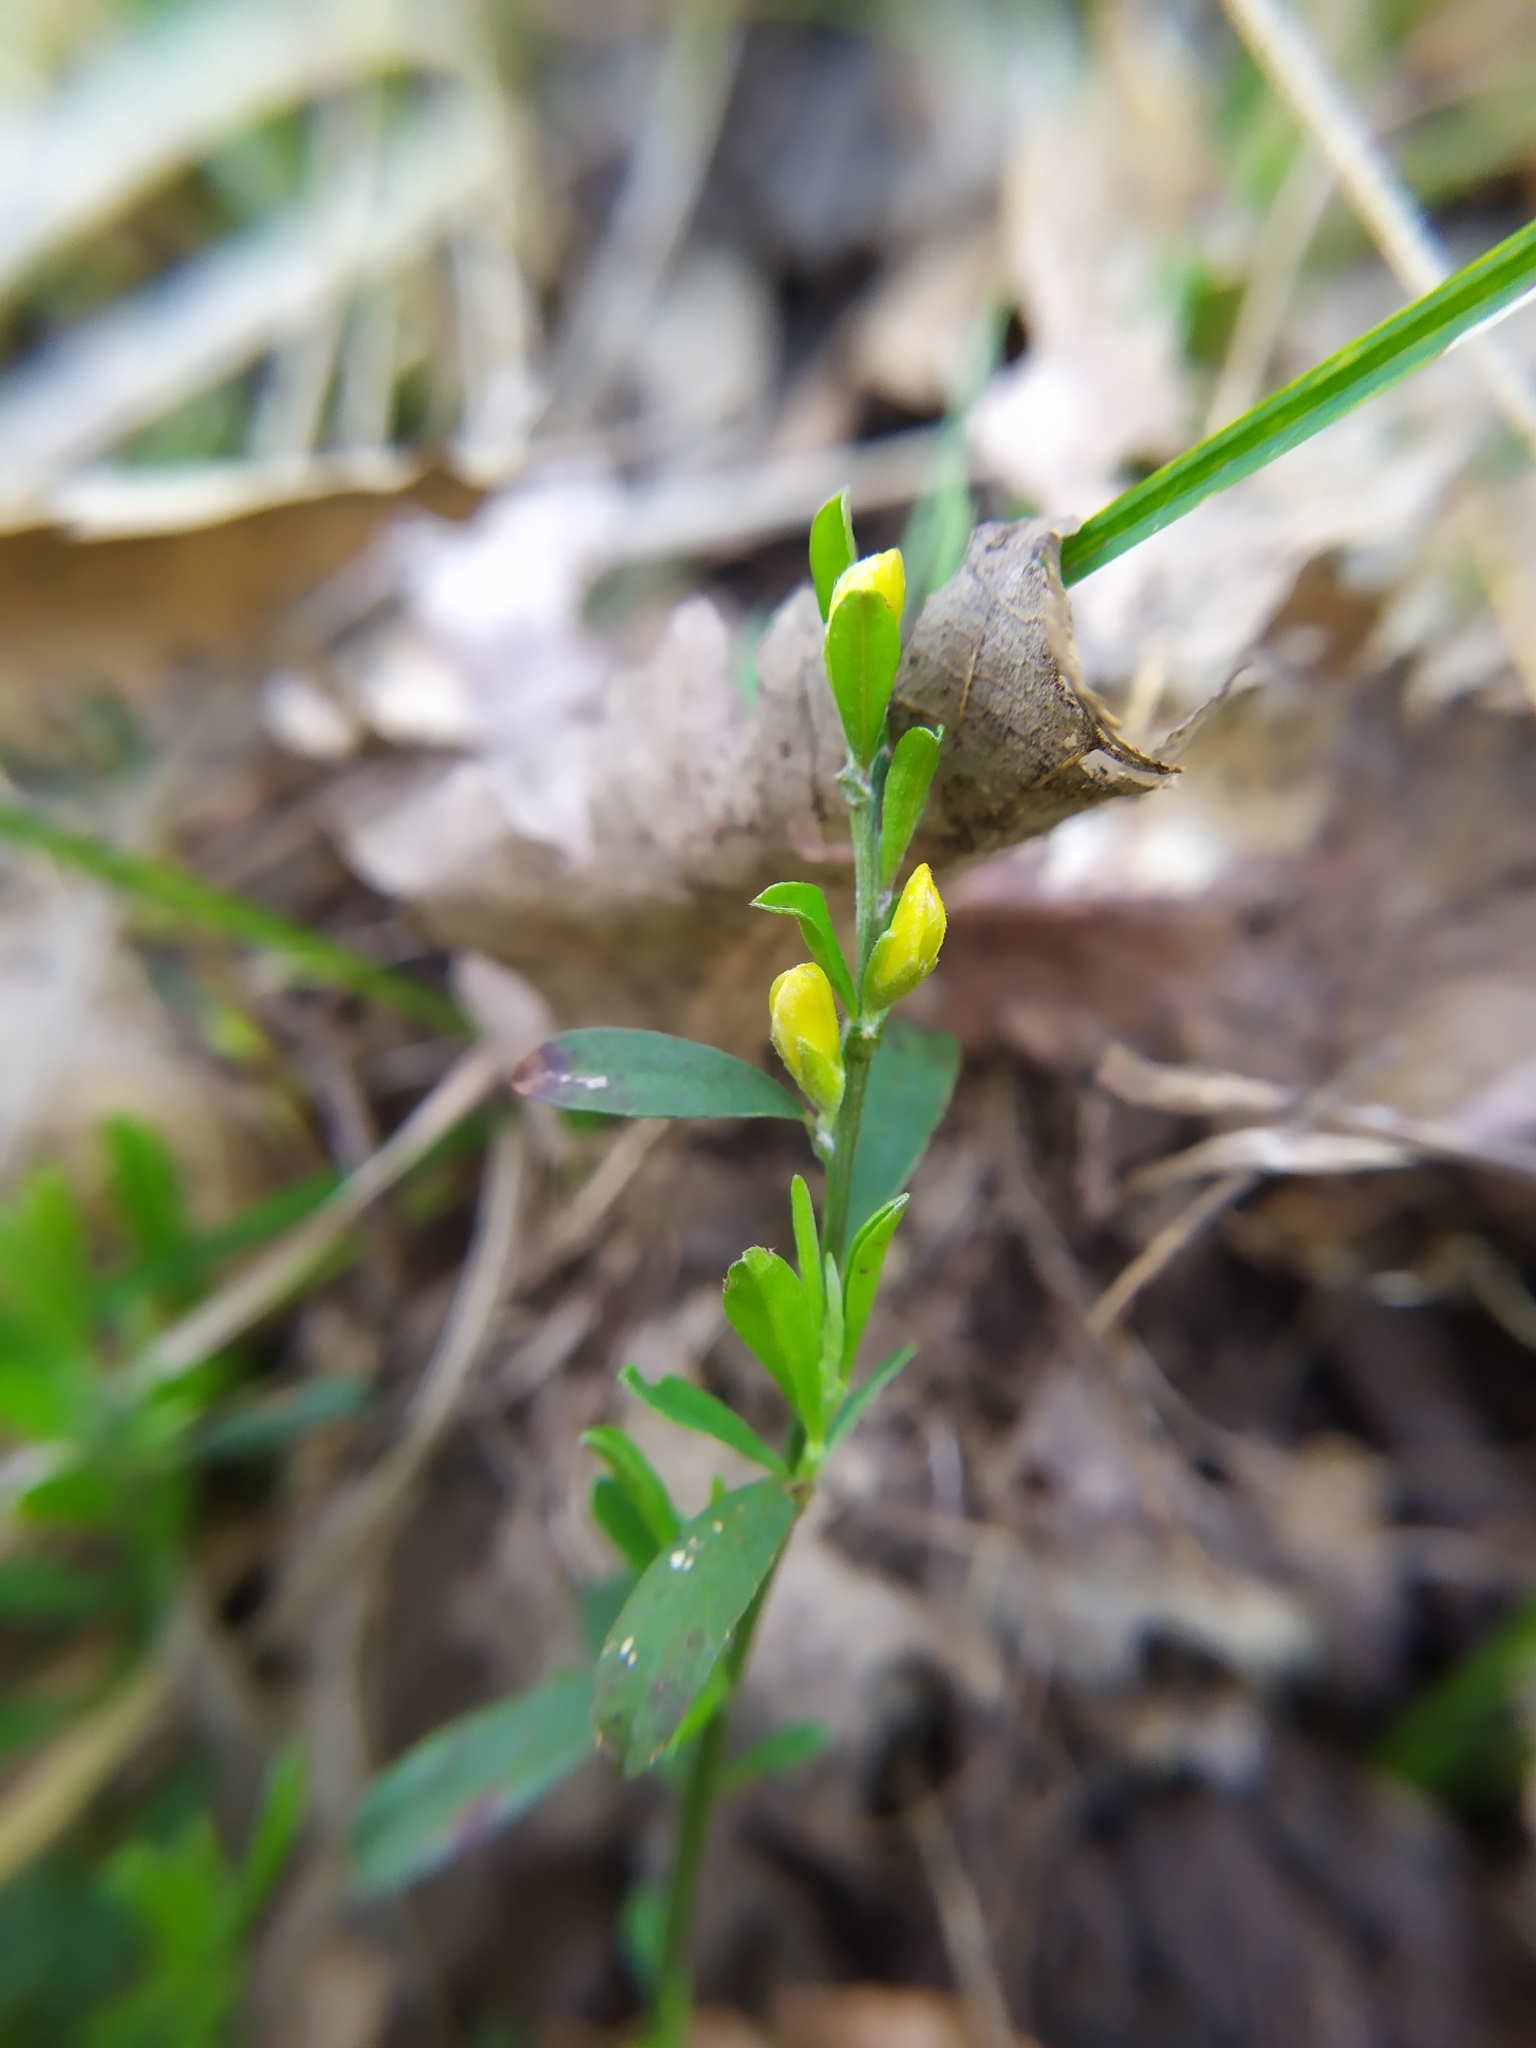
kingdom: Plantae
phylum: Tracheophyta
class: Magnoliopsida
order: Fabales
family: Fabaceae
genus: Genista
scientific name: Genista pilosa
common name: Hairy greenweed
